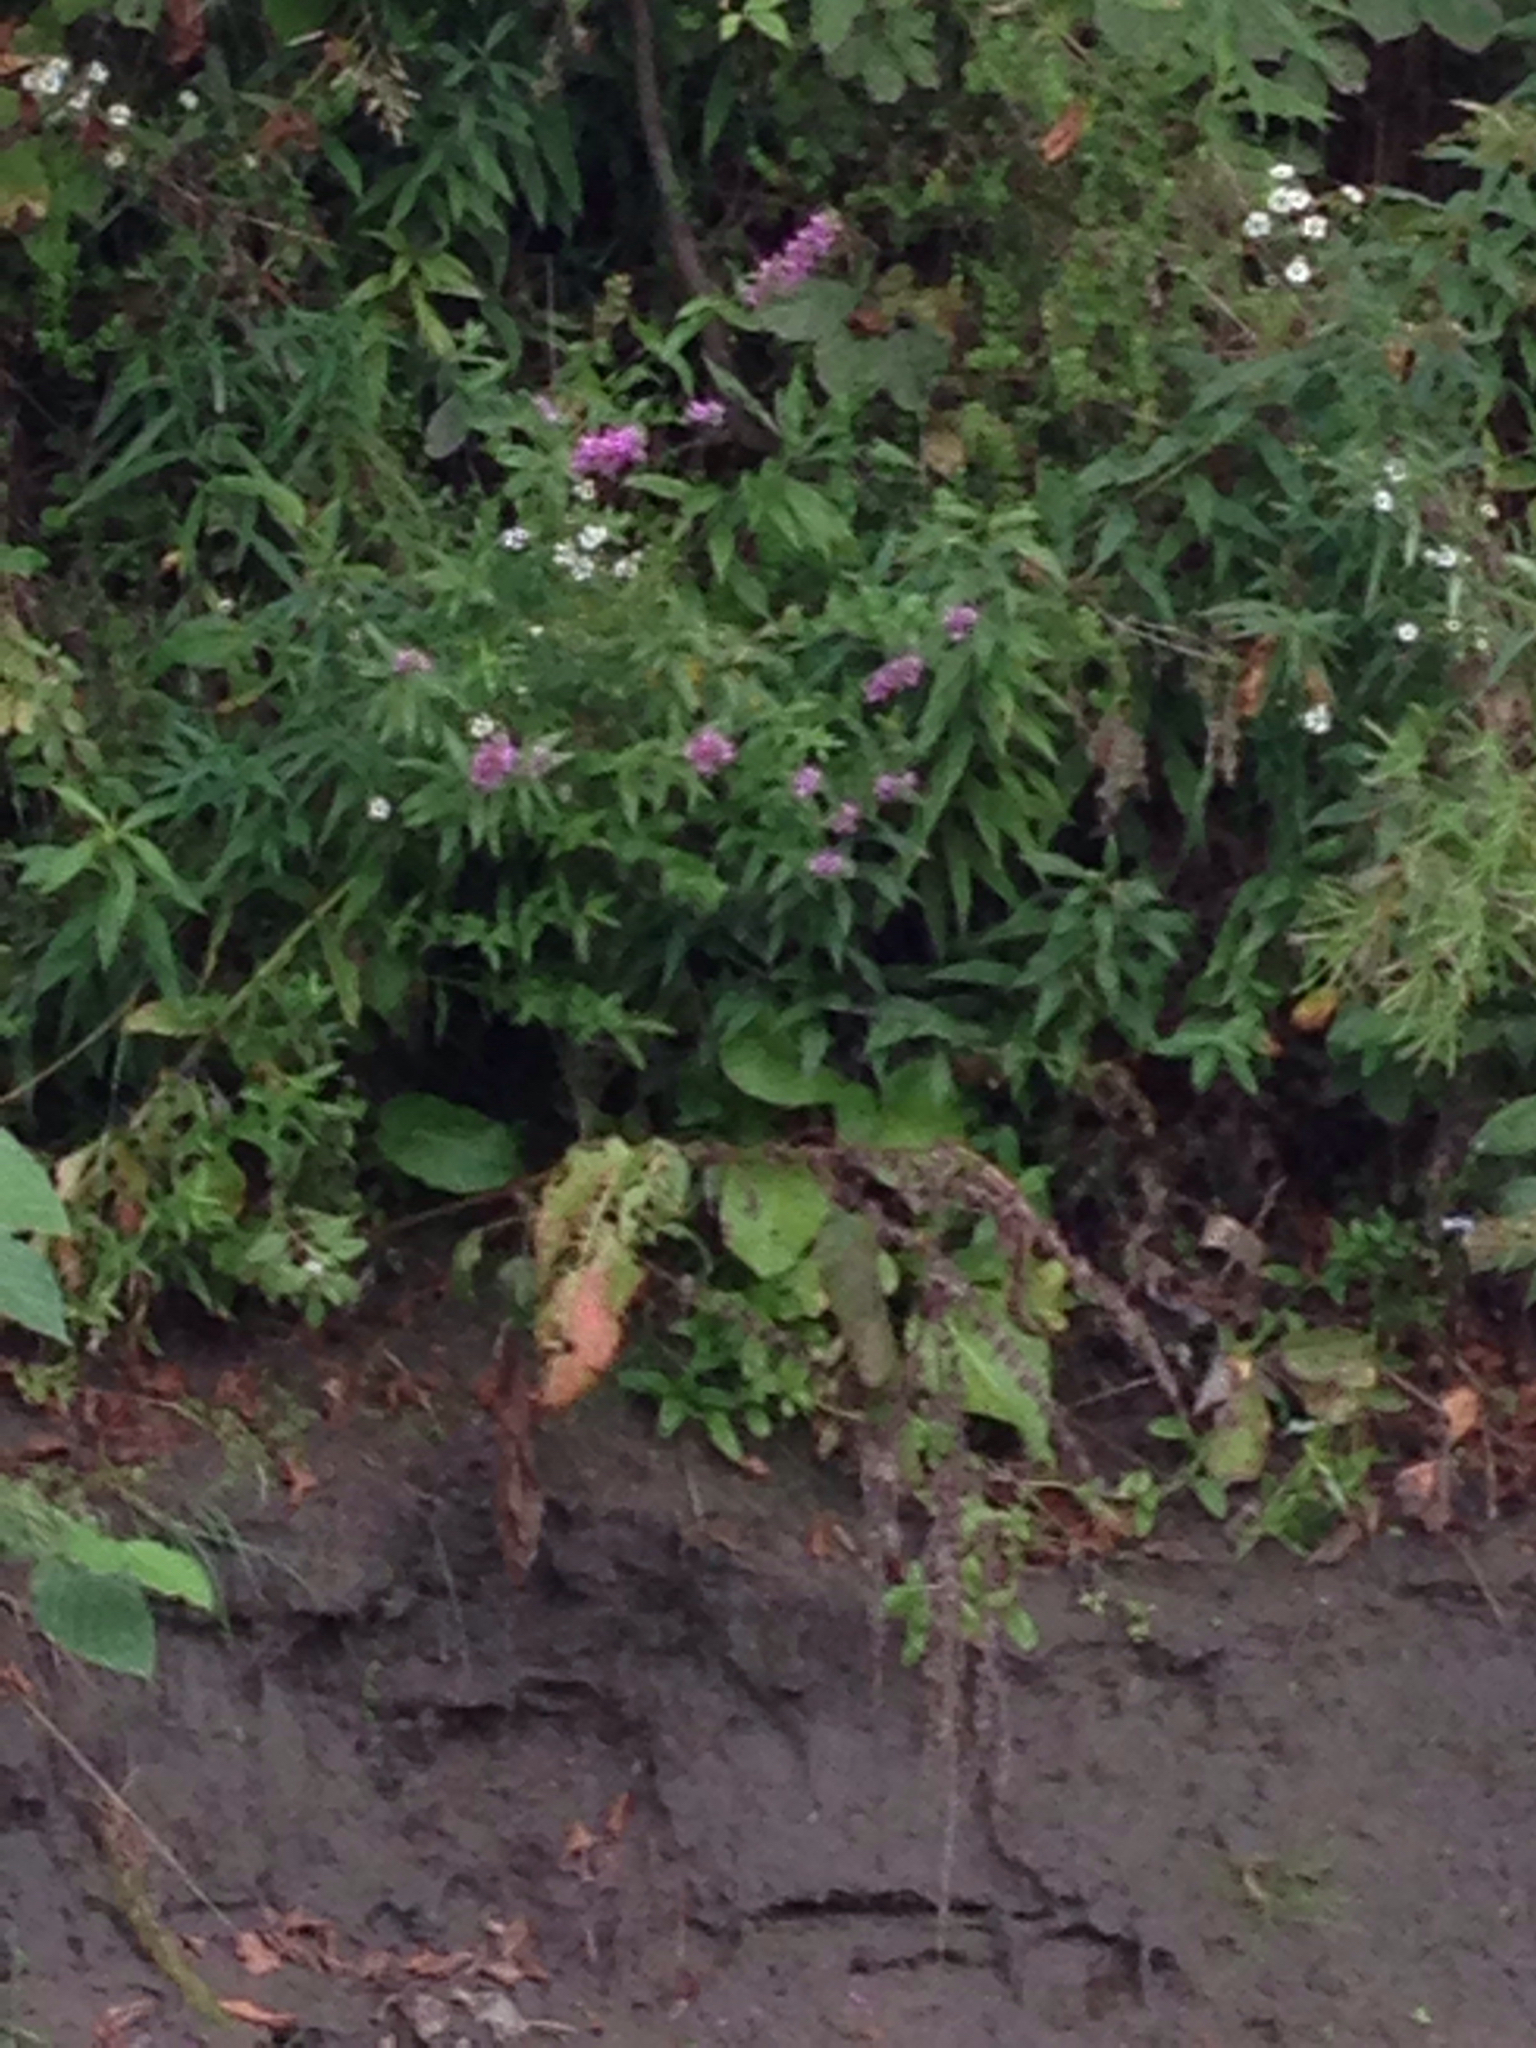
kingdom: Plantae
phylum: Tracheophyta
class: Magnoliopsida
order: Myrtales
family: Lythraceae
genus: Lythrum
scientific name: Lythrum salicaria
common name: Purple loosestrife
